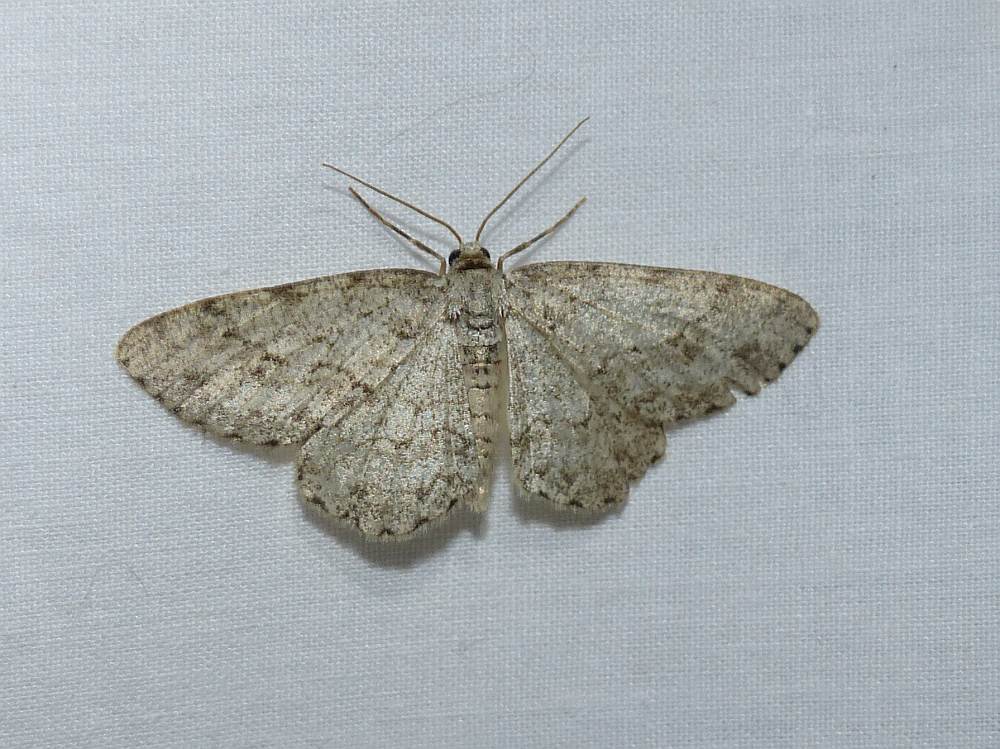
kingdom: Animalia
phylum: Arthropoda
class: Insecta
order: Lepidoptera
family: Geometridae
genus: Ectropis
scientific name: Ectropis crepuscularia
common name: Engrailed
